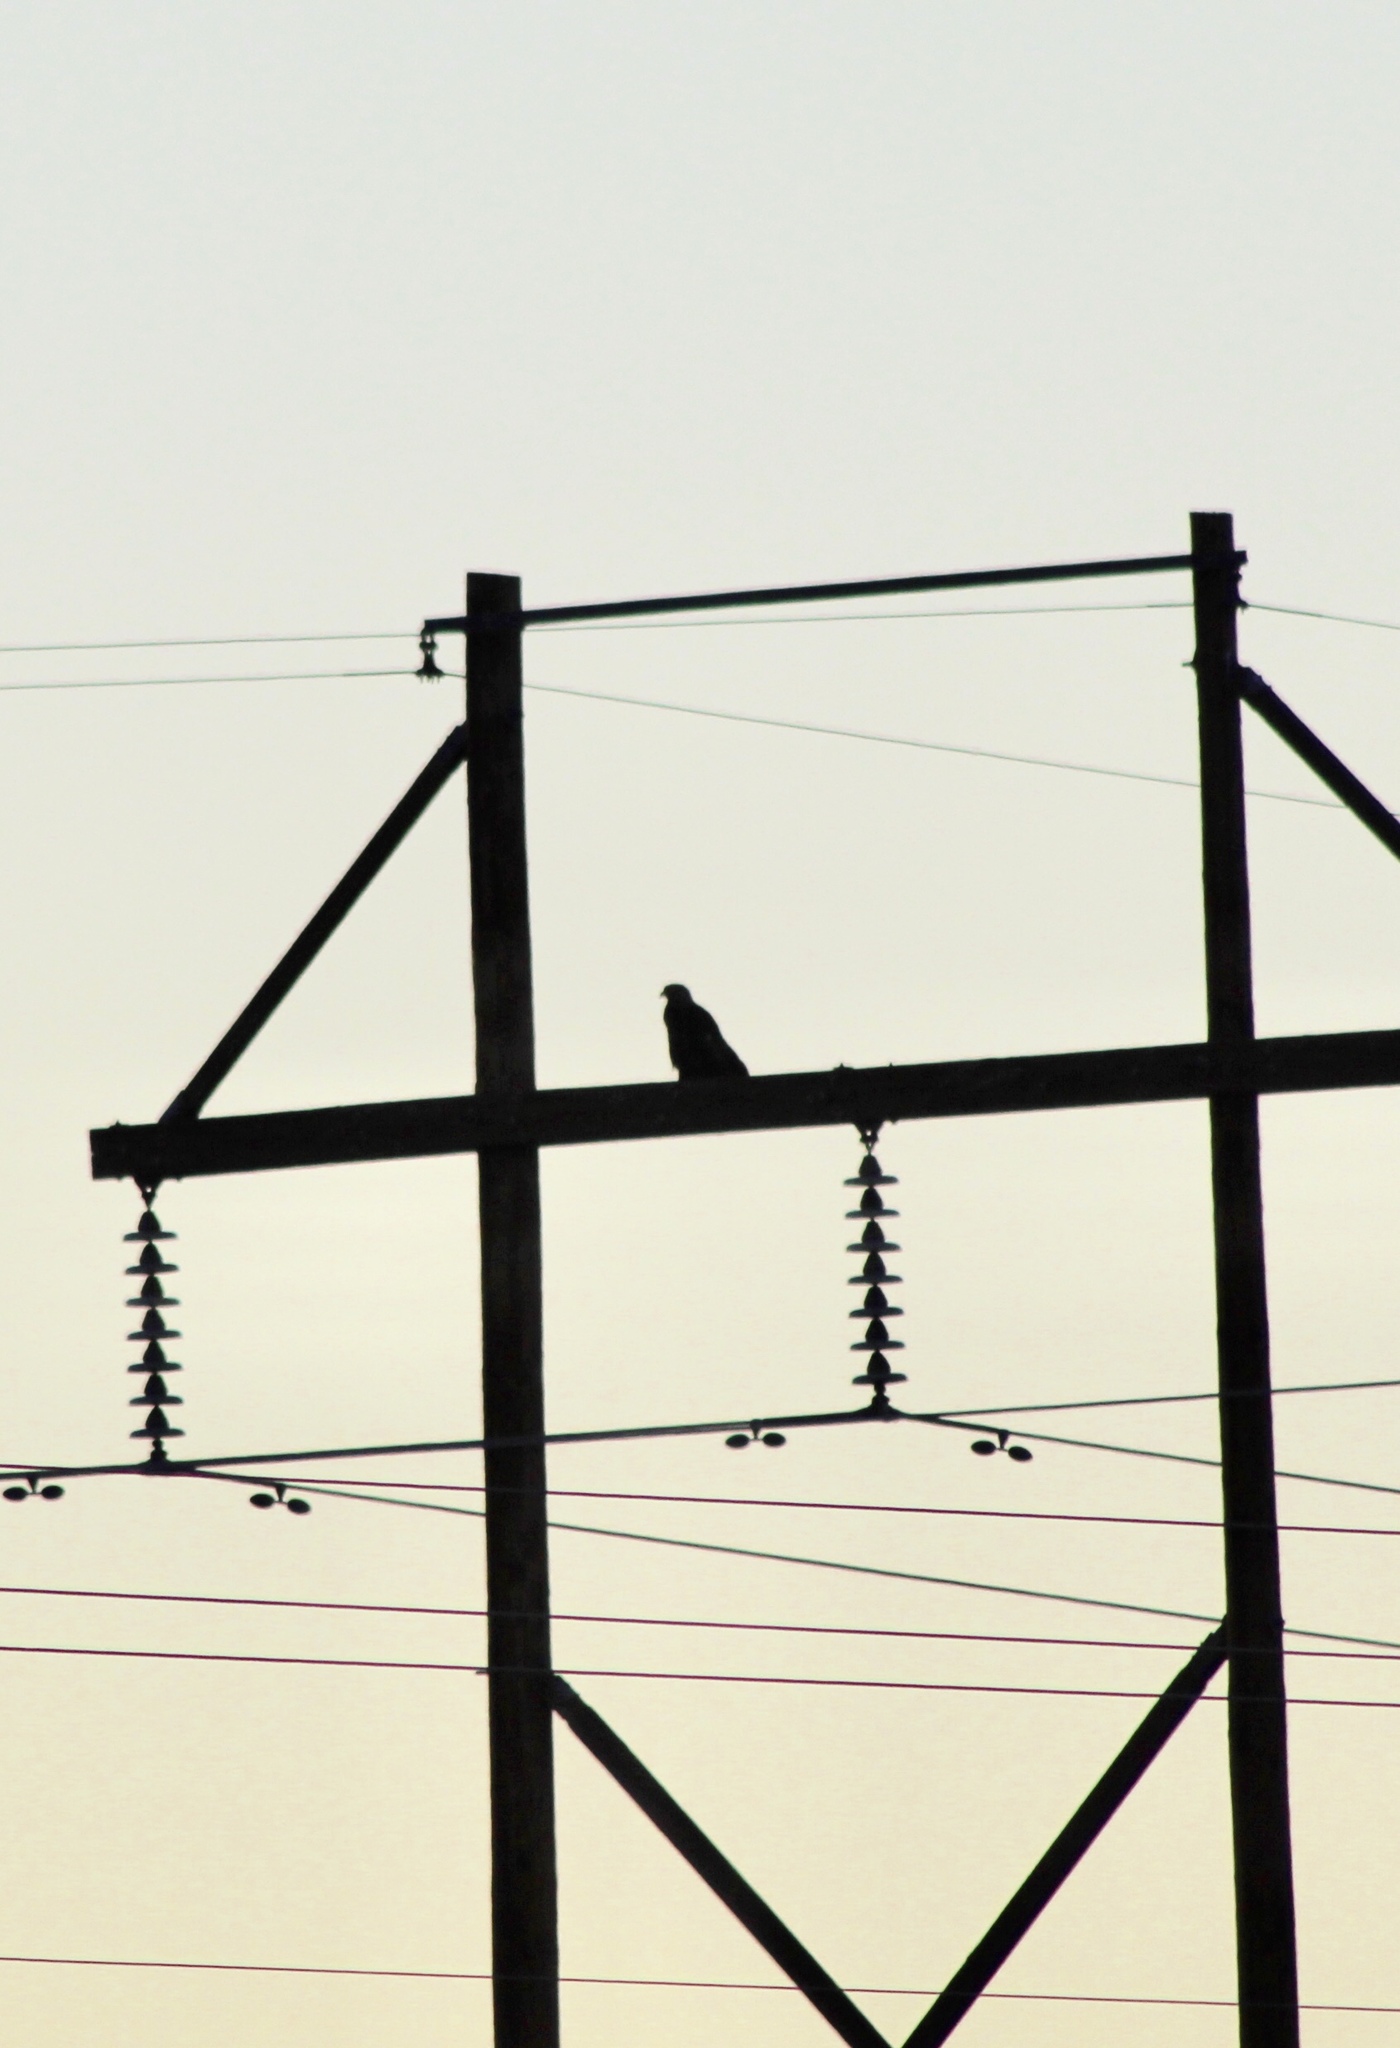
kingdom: Animalia
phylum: Chordata
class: Aves
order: Accipitriformes
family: Accipitridae
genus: Buteo
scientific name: Buteo
